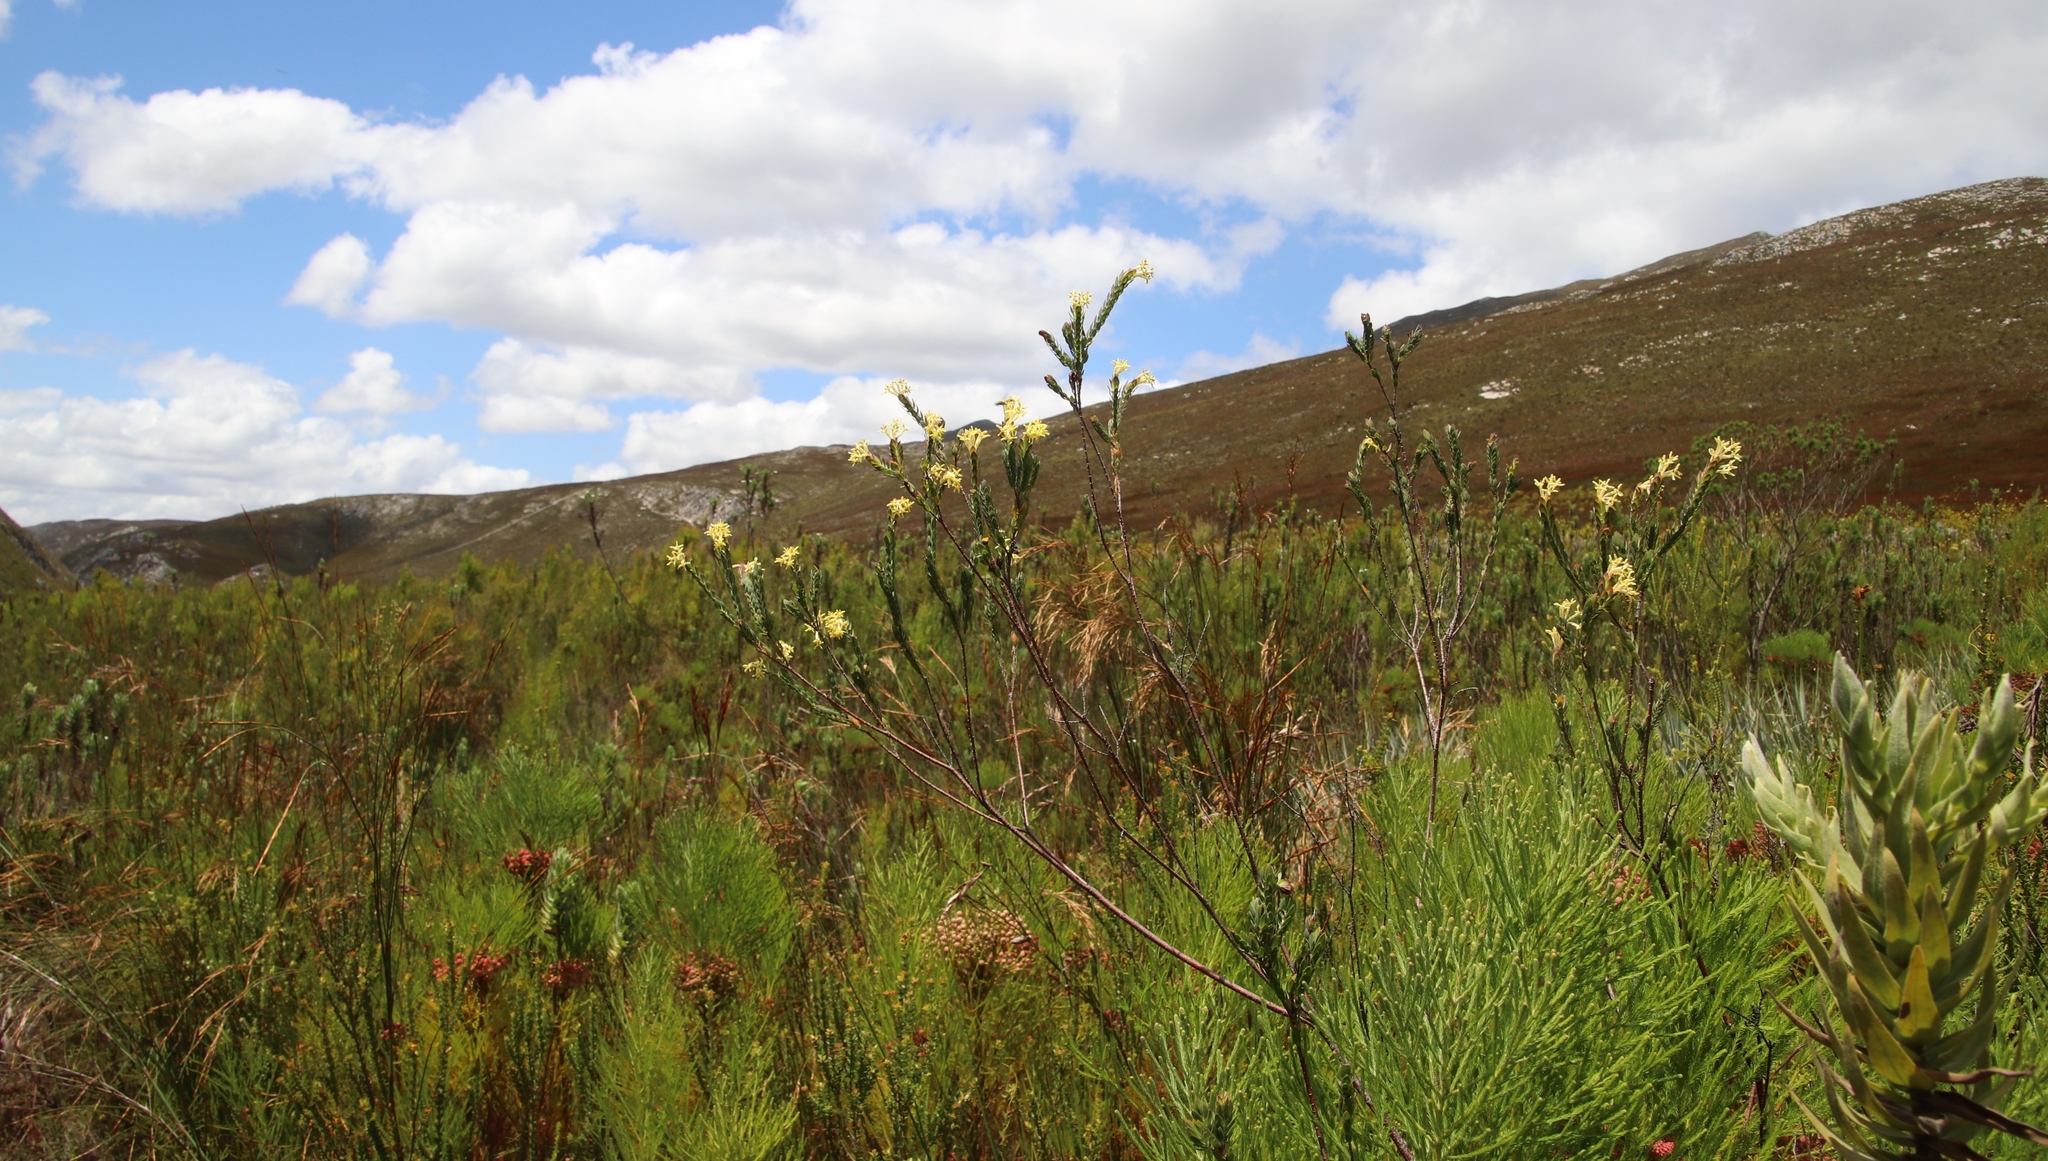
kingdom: Plantae
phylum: Tracheophyta
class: Magnoliopsida
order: Malvales
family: Thymelaeaceae
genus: Gnidia
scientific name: Gnidia oppositifolia
